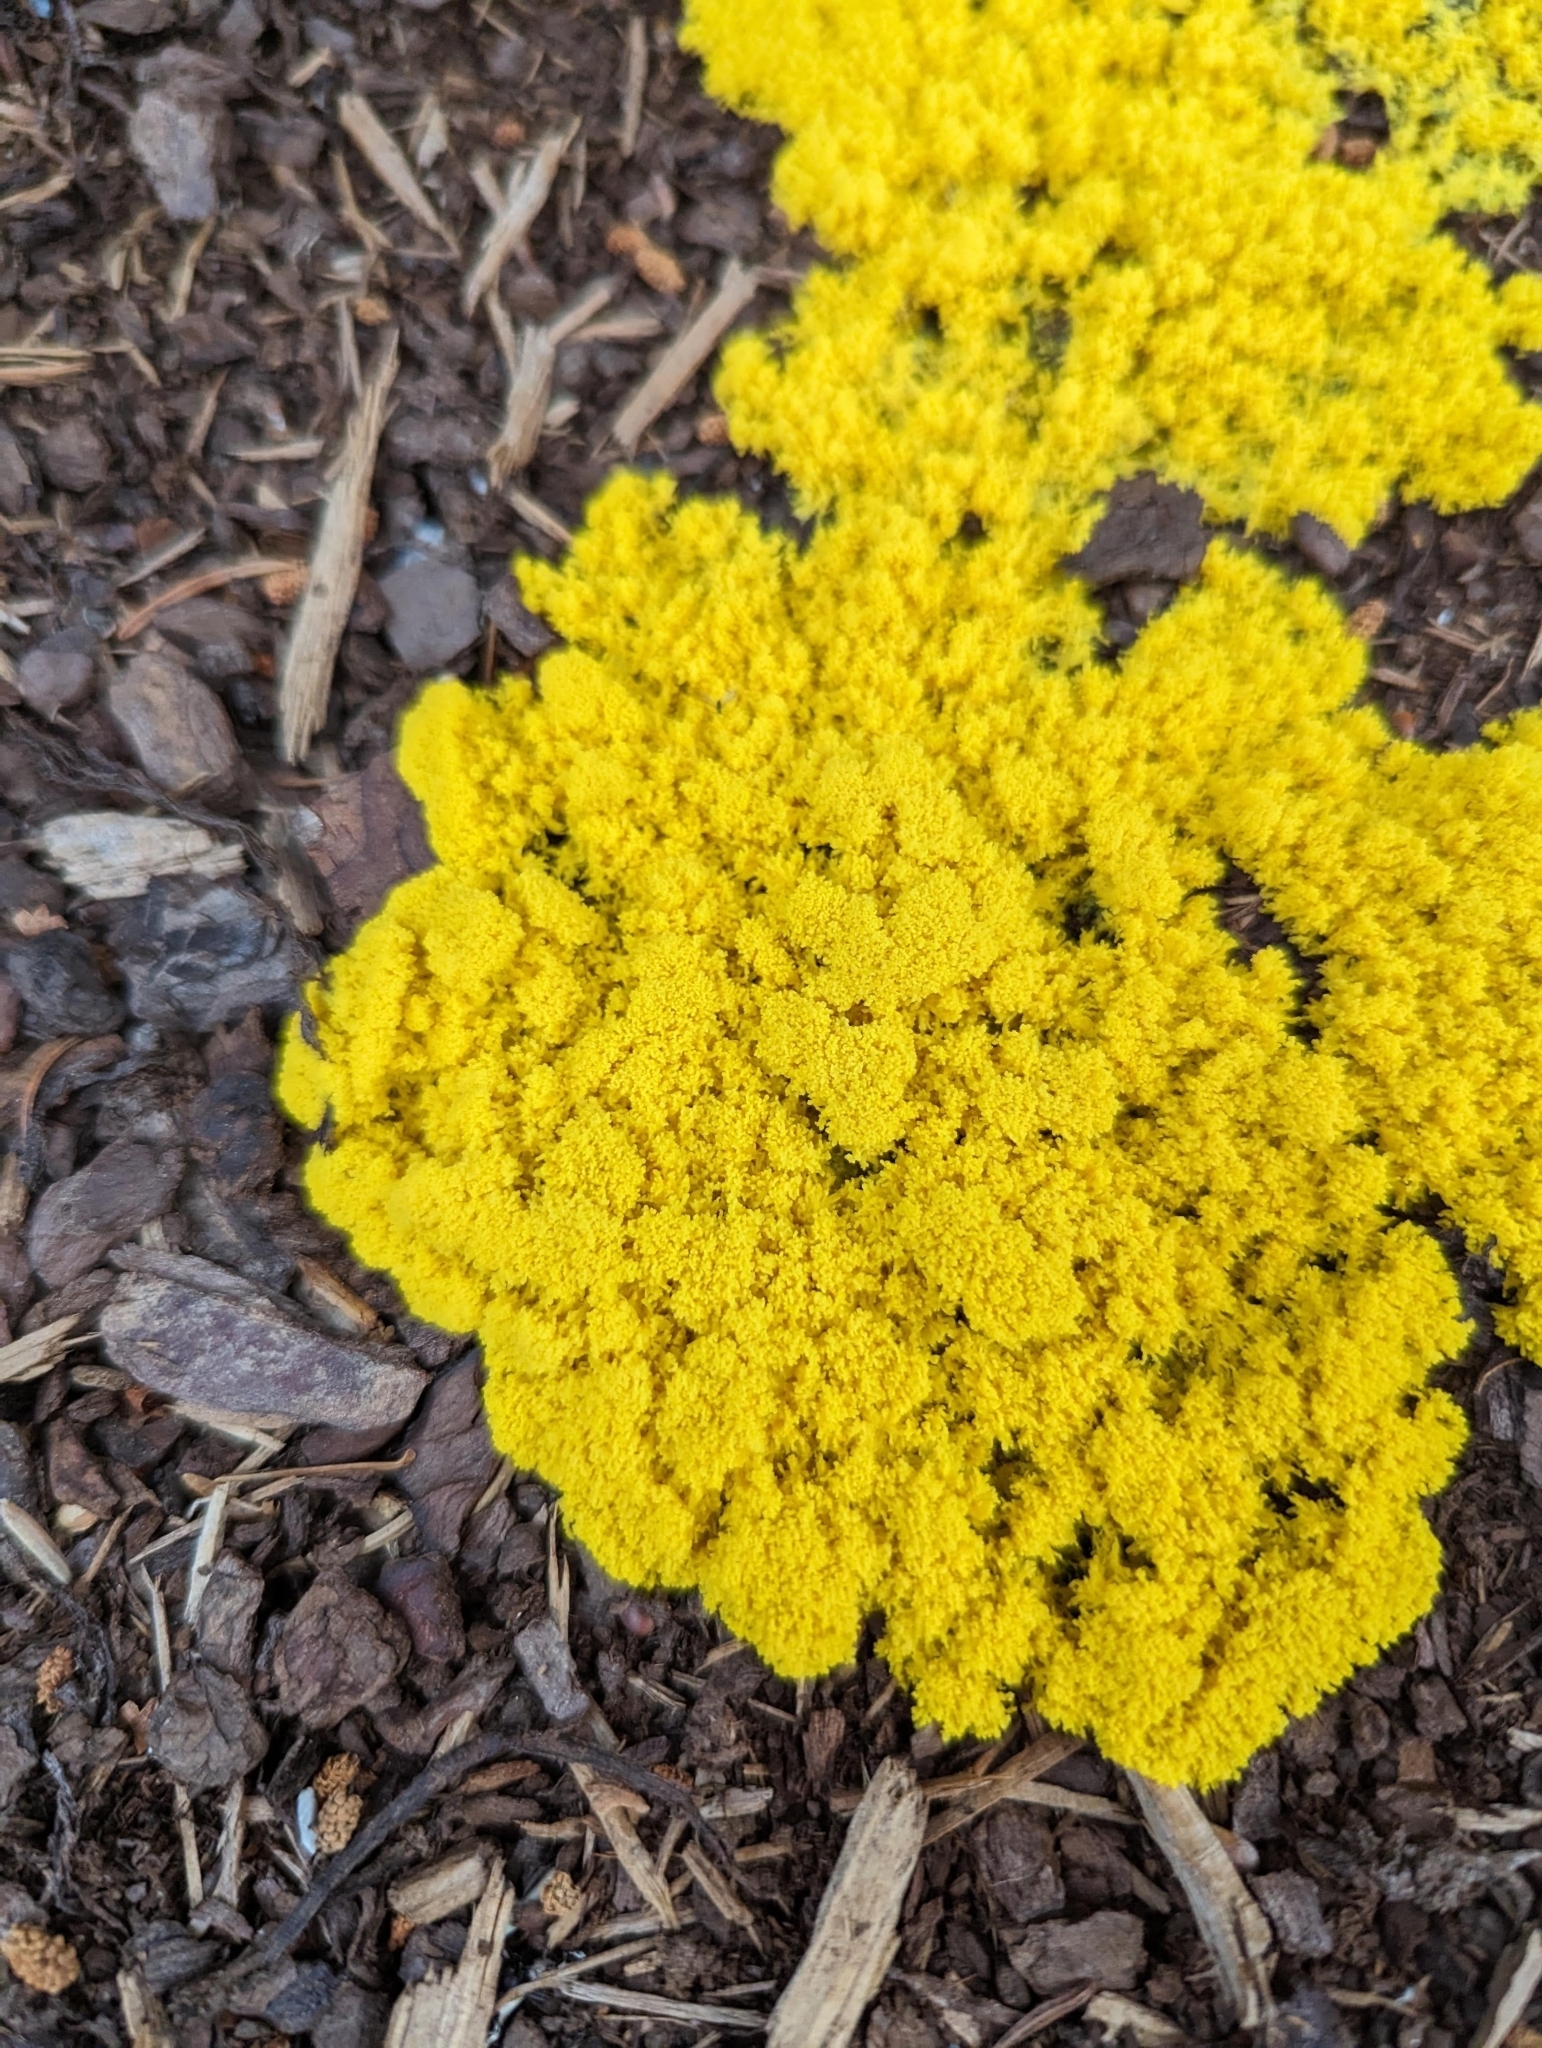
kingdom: Protozoa
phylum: Mycetozoa
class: Myxomycetes
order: Physarales
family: Physaraceae
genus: Fuligo
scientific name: Fuligo septica
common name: Dog vomit slime mold
